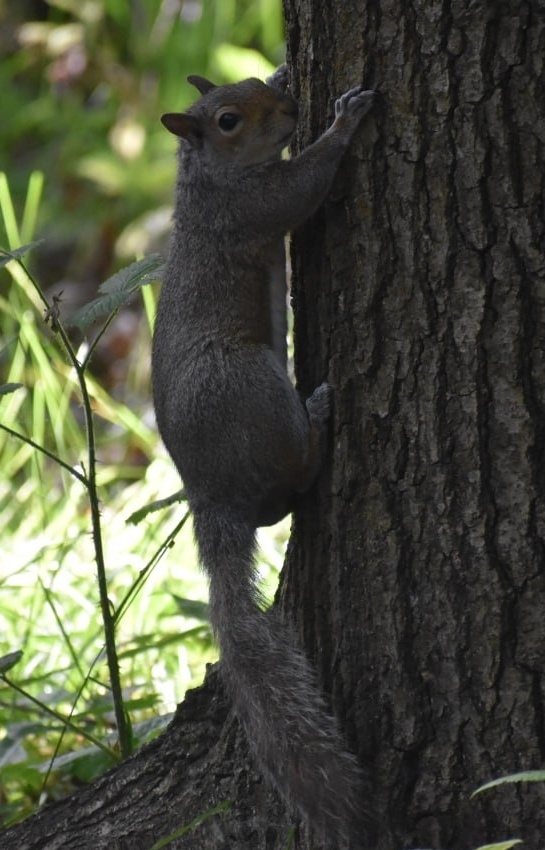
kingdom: Animalia
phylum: Chordata
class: Mammalia
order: Rodentia
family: Sciuridae
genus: Sciurus
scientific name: Sciurus carolinensis
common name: Eastern gray squirrel
